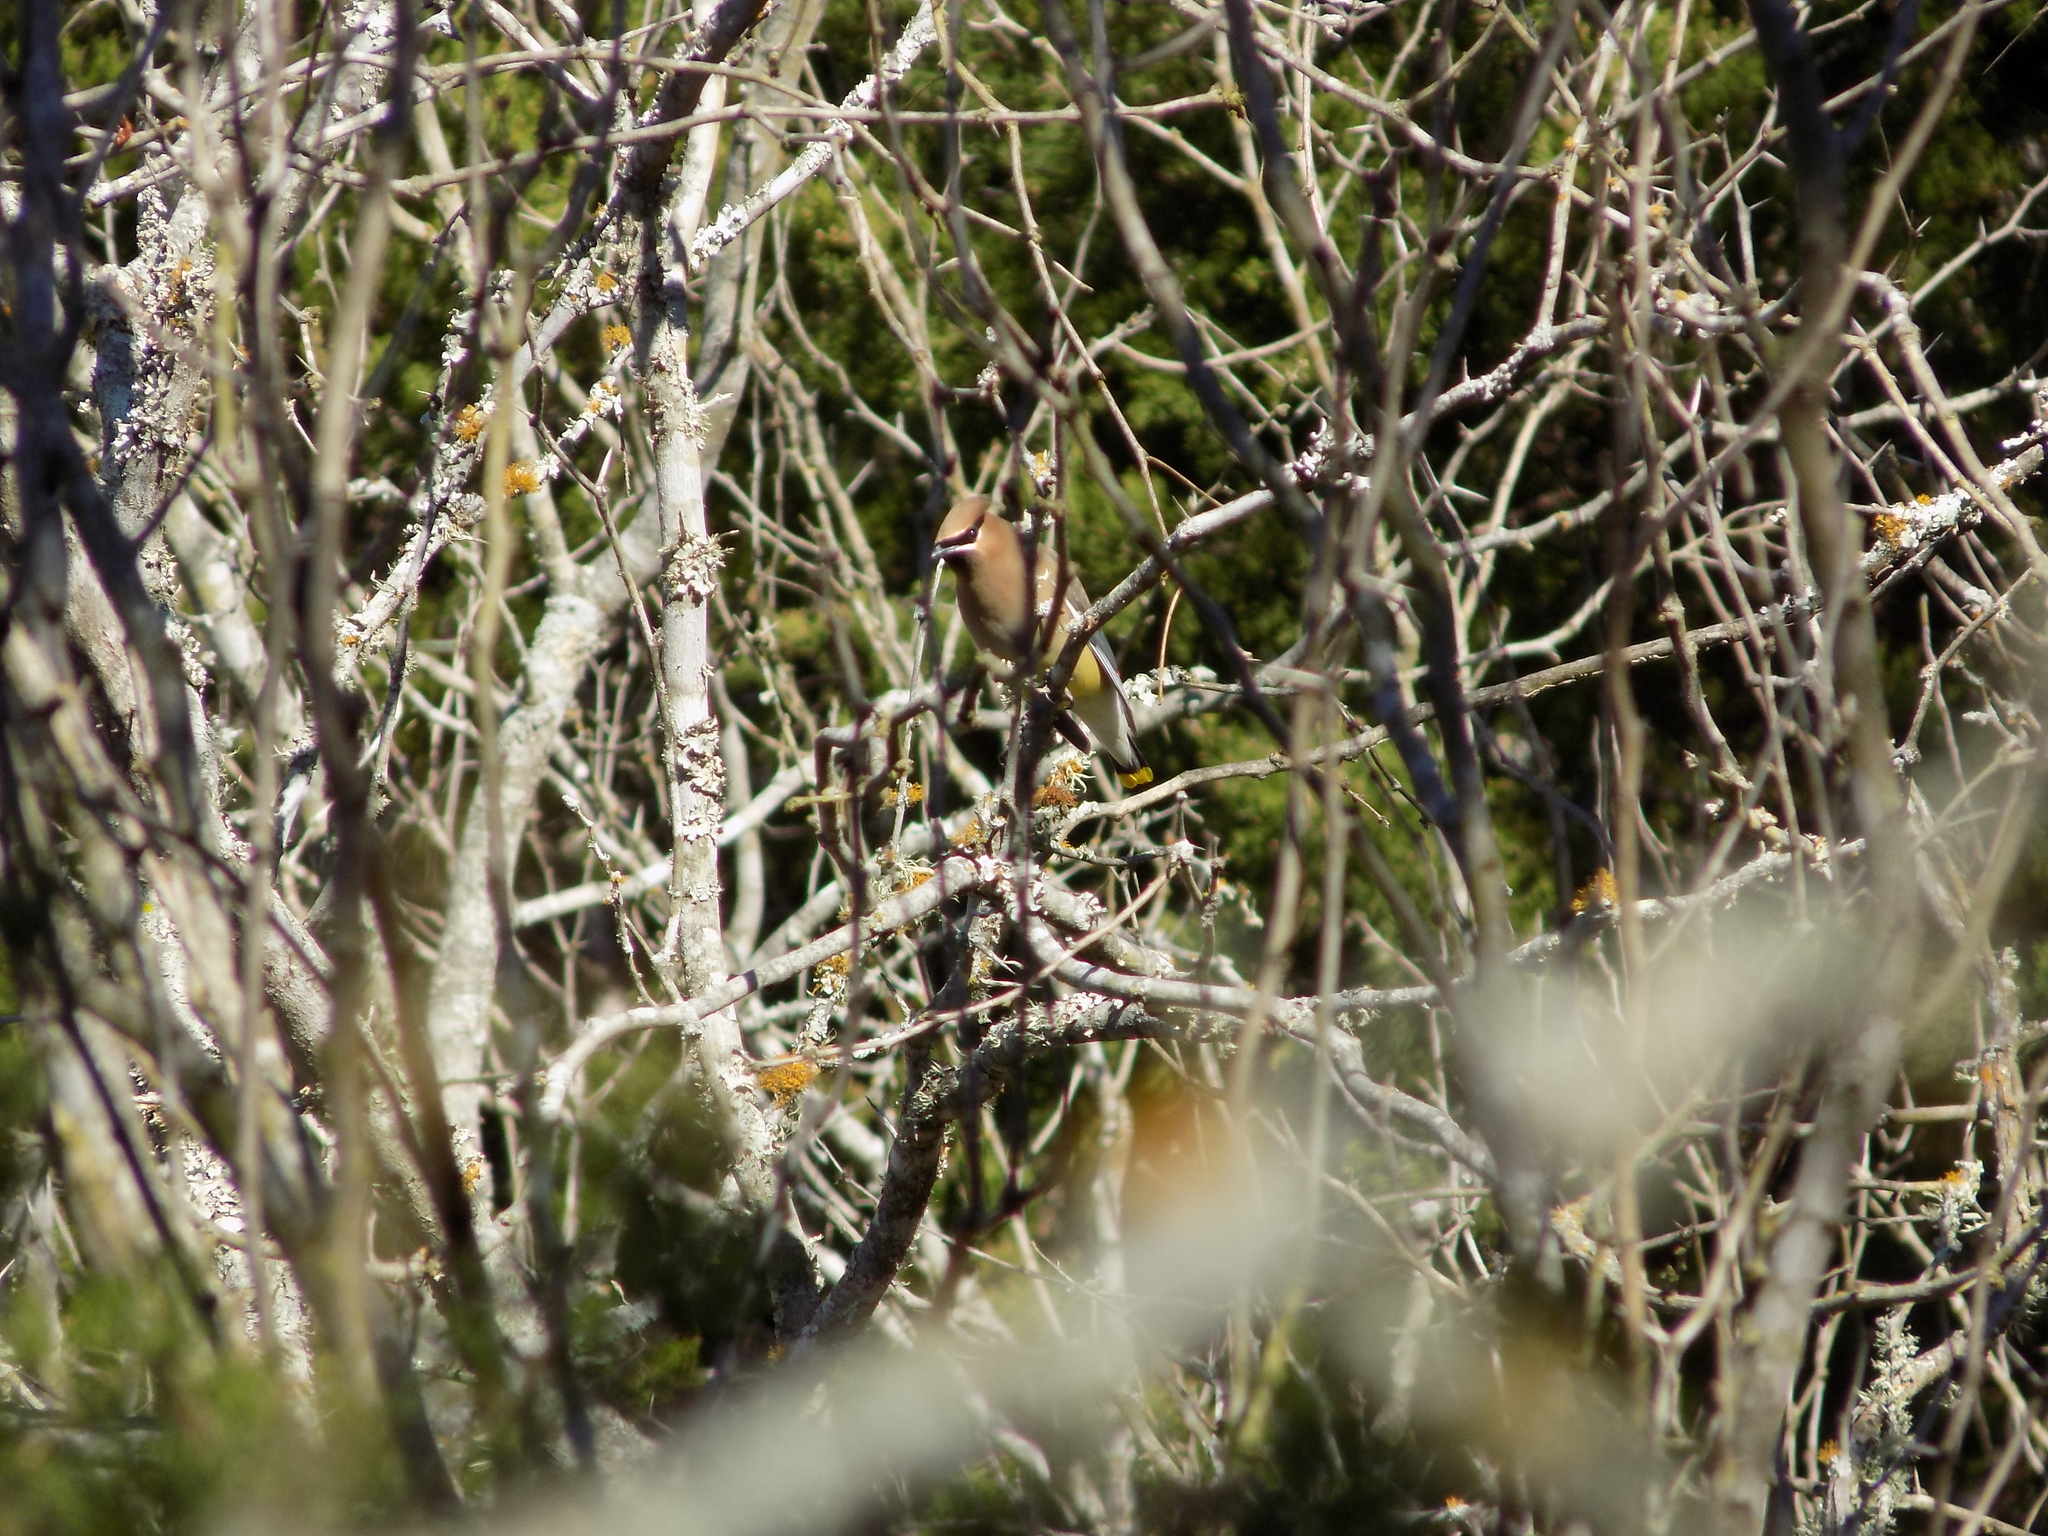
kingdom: Animalia
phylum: Chordata
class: Aves
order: Passeriformes
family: Bombycillidae
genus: Bombycilla
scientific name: Bombycilla cedrorum
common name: Cedar waxwing
